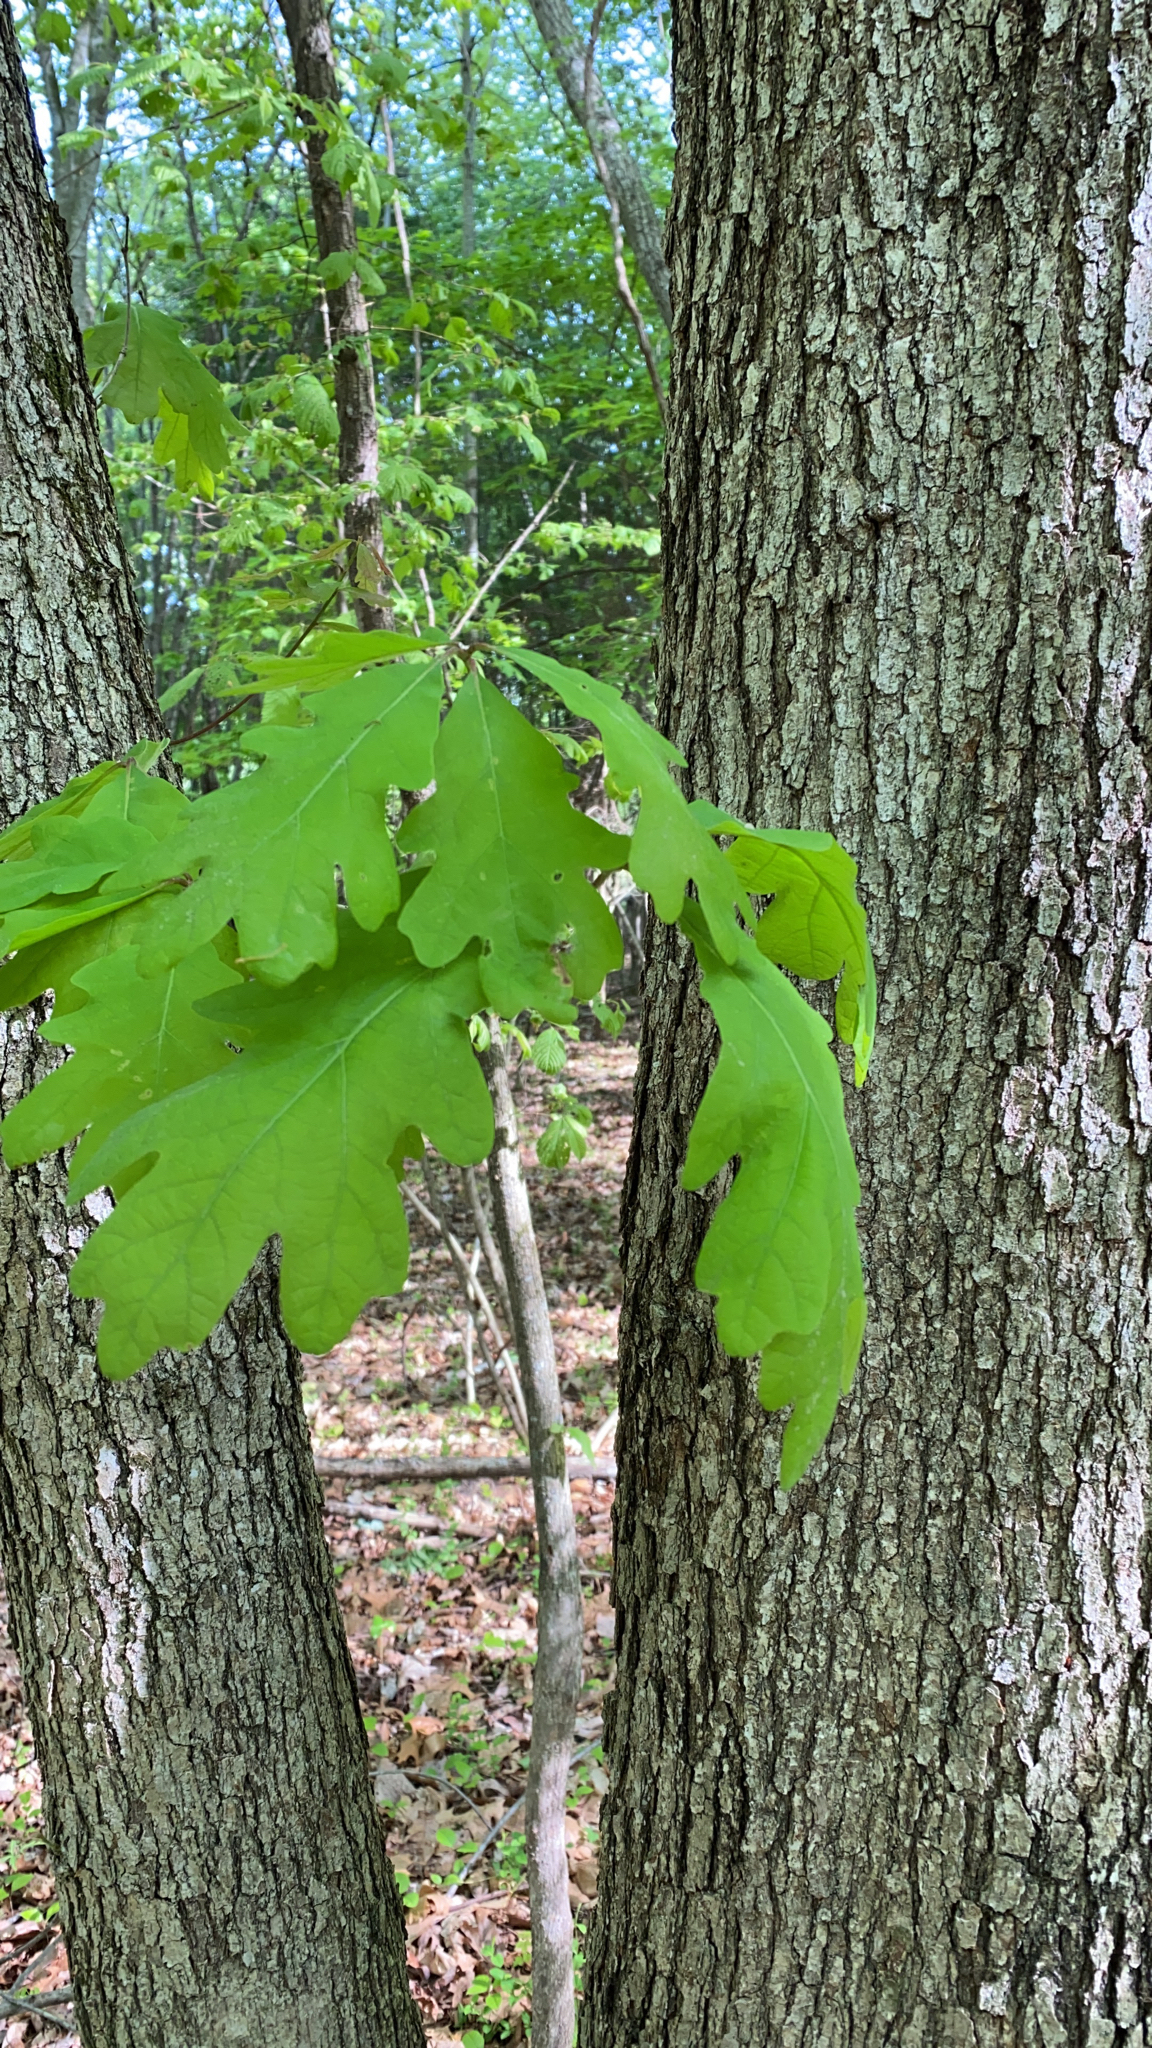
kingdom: Plantae
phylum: Tracheophyta
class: Magnoliopsida
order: Fagales
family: Fagaceae
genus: Quercus
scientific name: Quercus alba
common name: White oak
